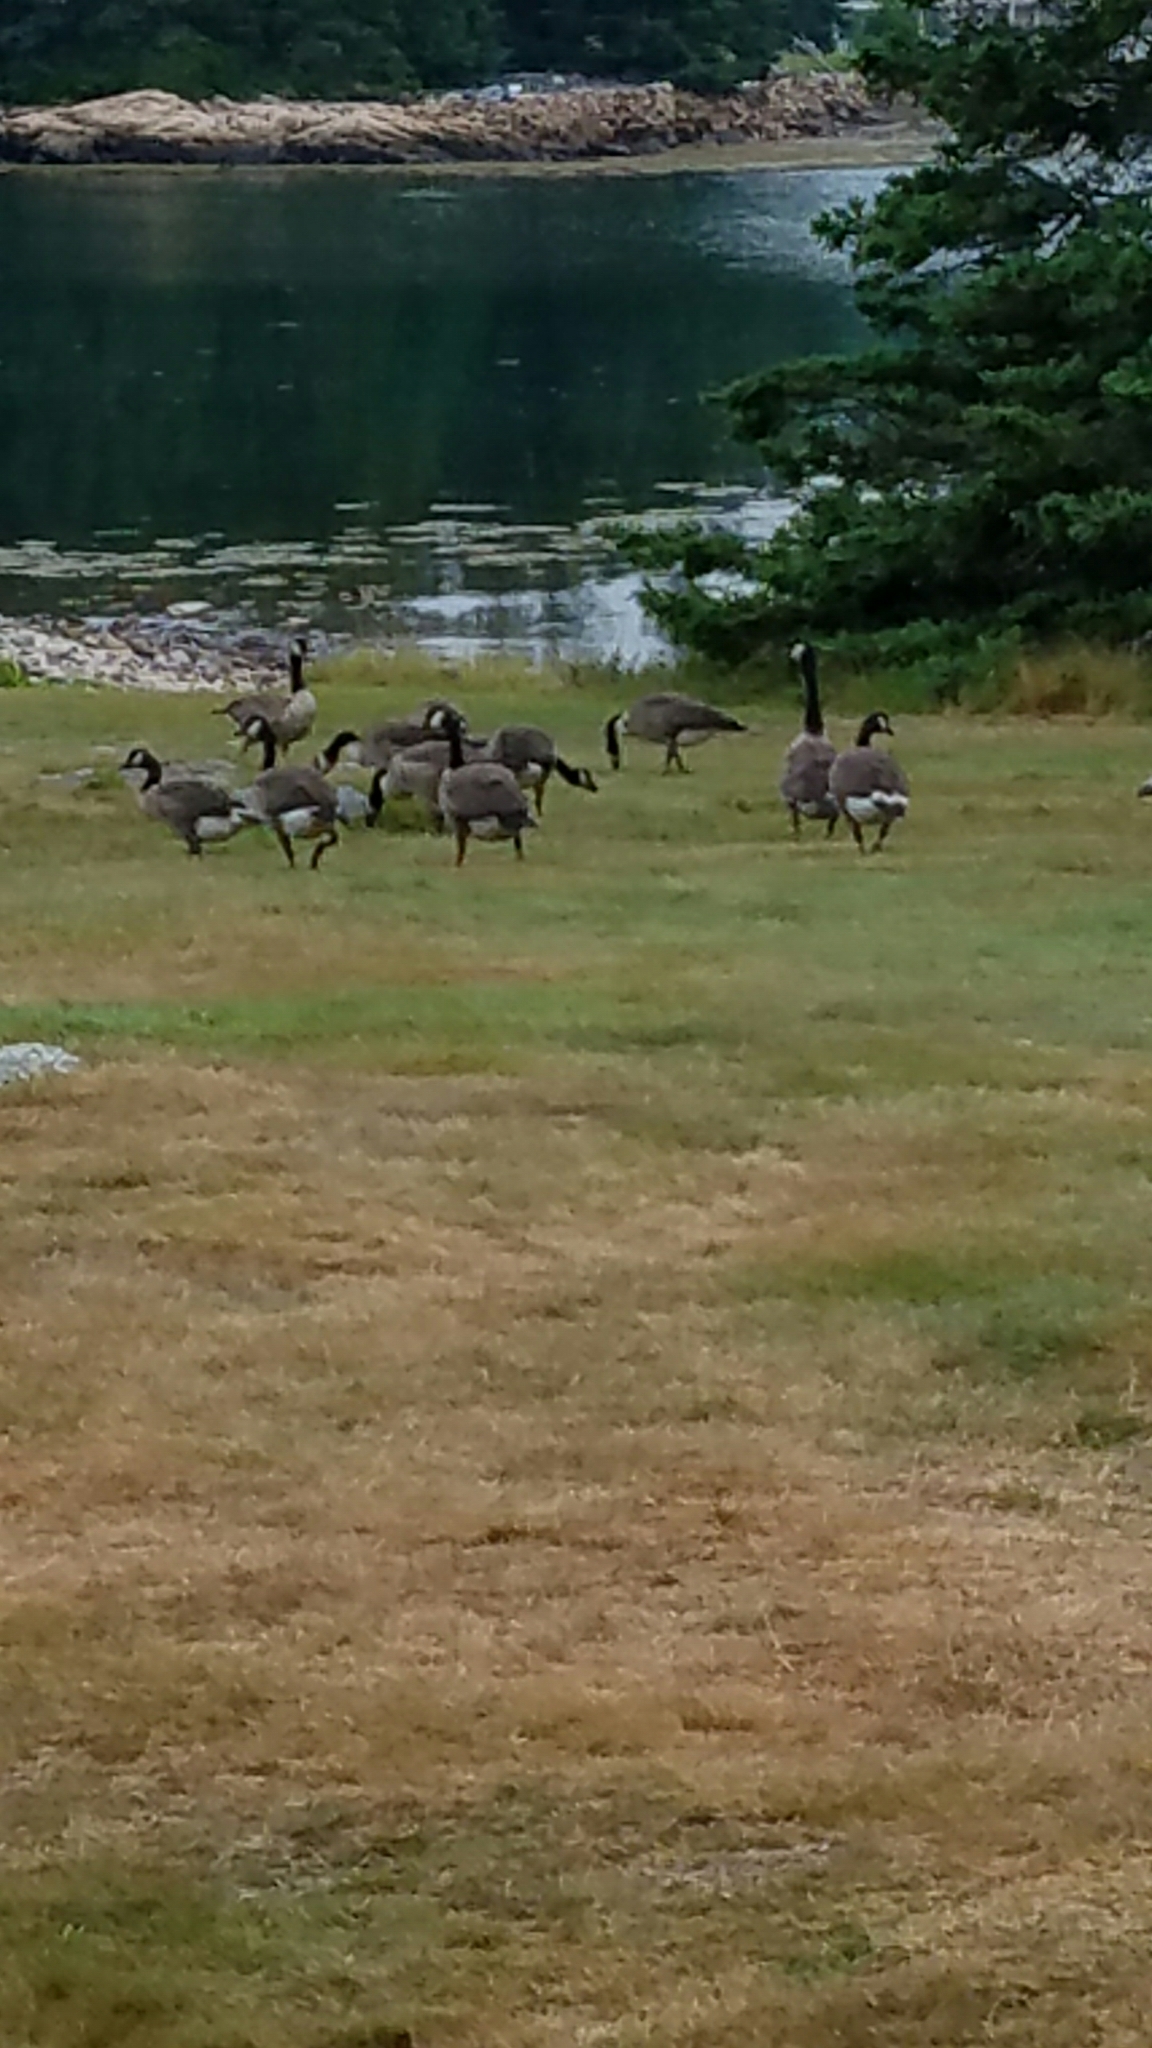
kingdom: Animalia
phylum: Chordata
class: Aves
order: Anseriformes
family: Anatidae
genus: Branta
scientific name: Branta canadensis
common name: Canada goose
